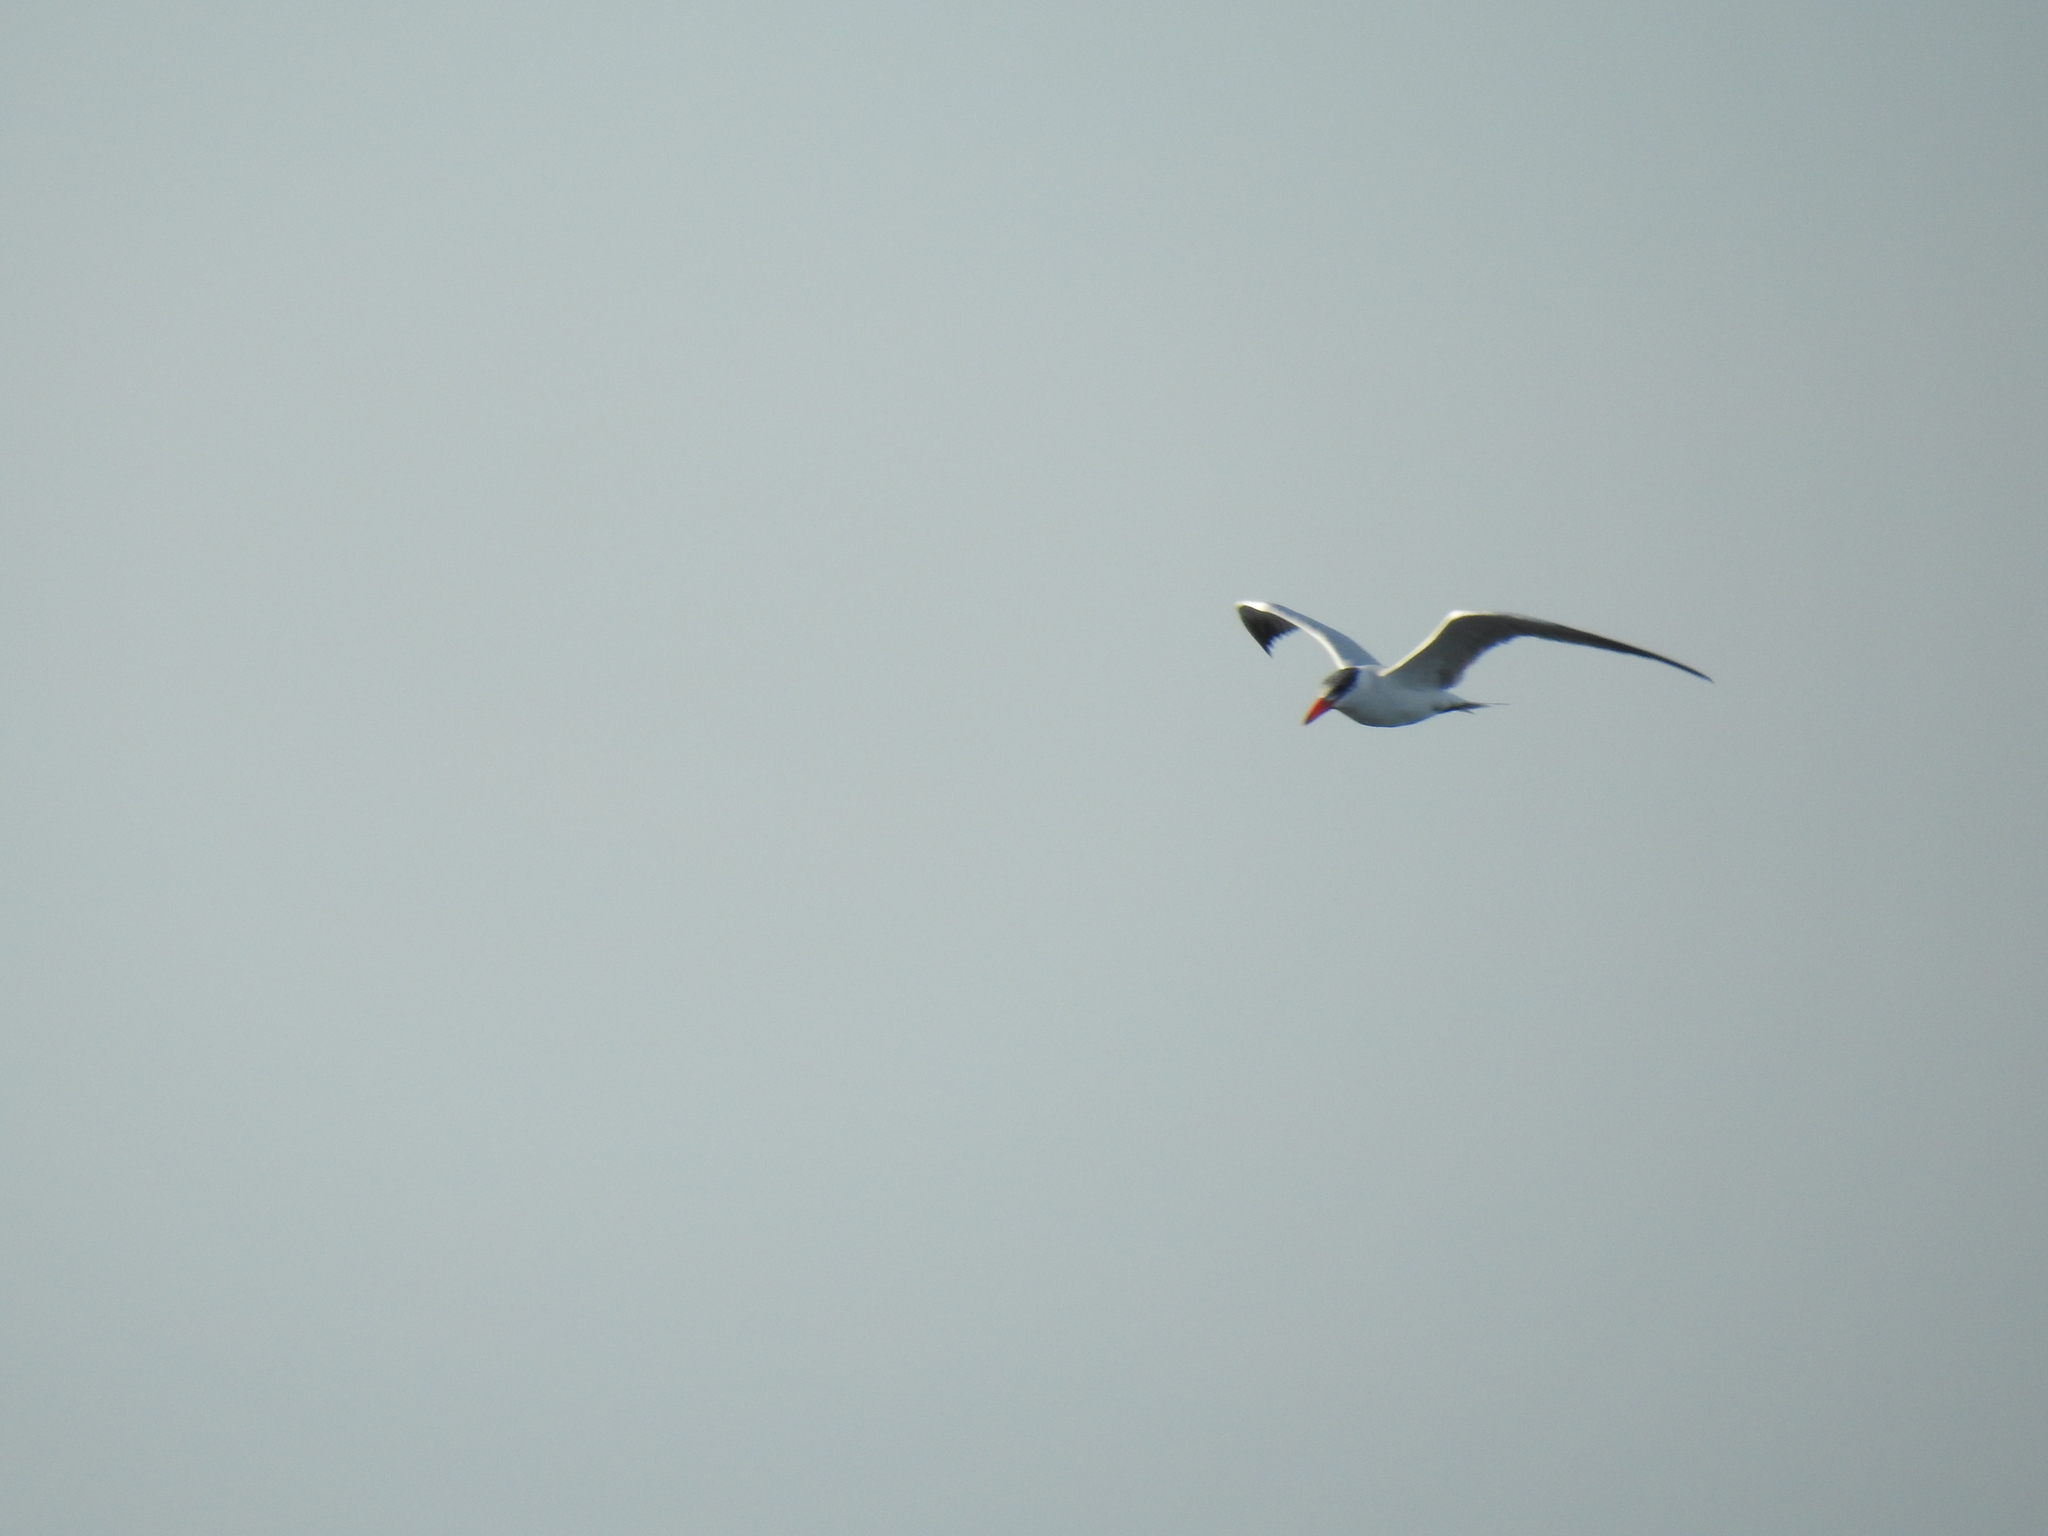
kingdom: Animalia
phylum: Chordata
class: Aves
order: Charadriiformes
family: Laridae
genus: Hydroprogne
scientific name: Hydroprogne caspia
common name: Caspian tern
